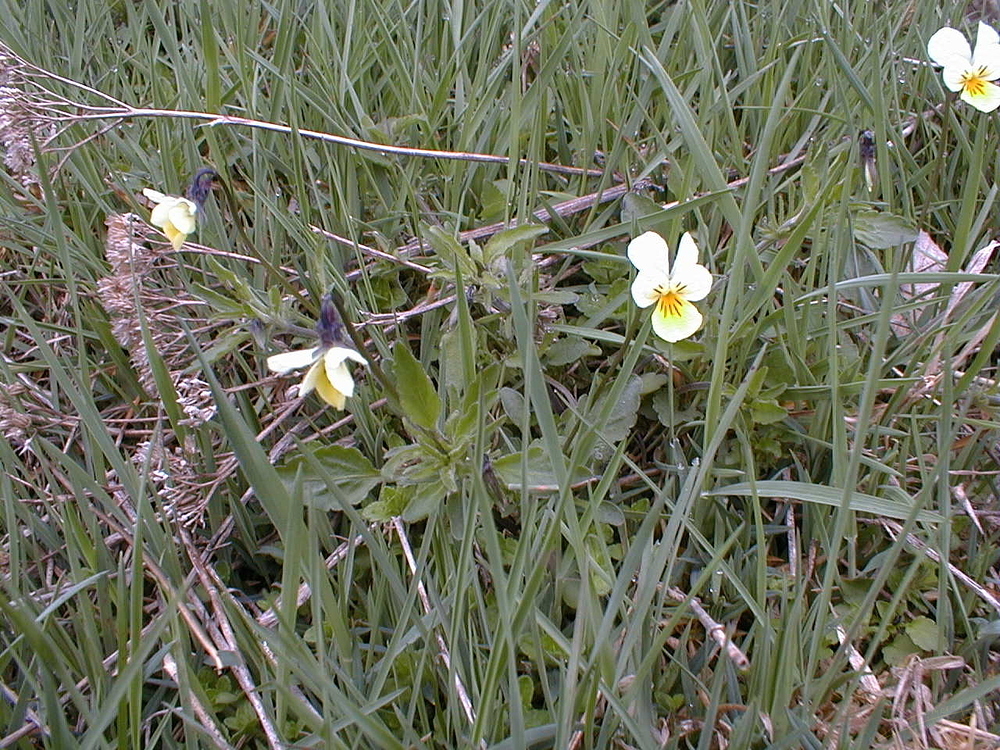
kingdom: Plantae
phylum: Tracheophyta
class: Magnoliopsida
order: Malpighiales
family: Violaceae
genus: Viola
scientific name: Viola arvensis
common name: Field pansy
